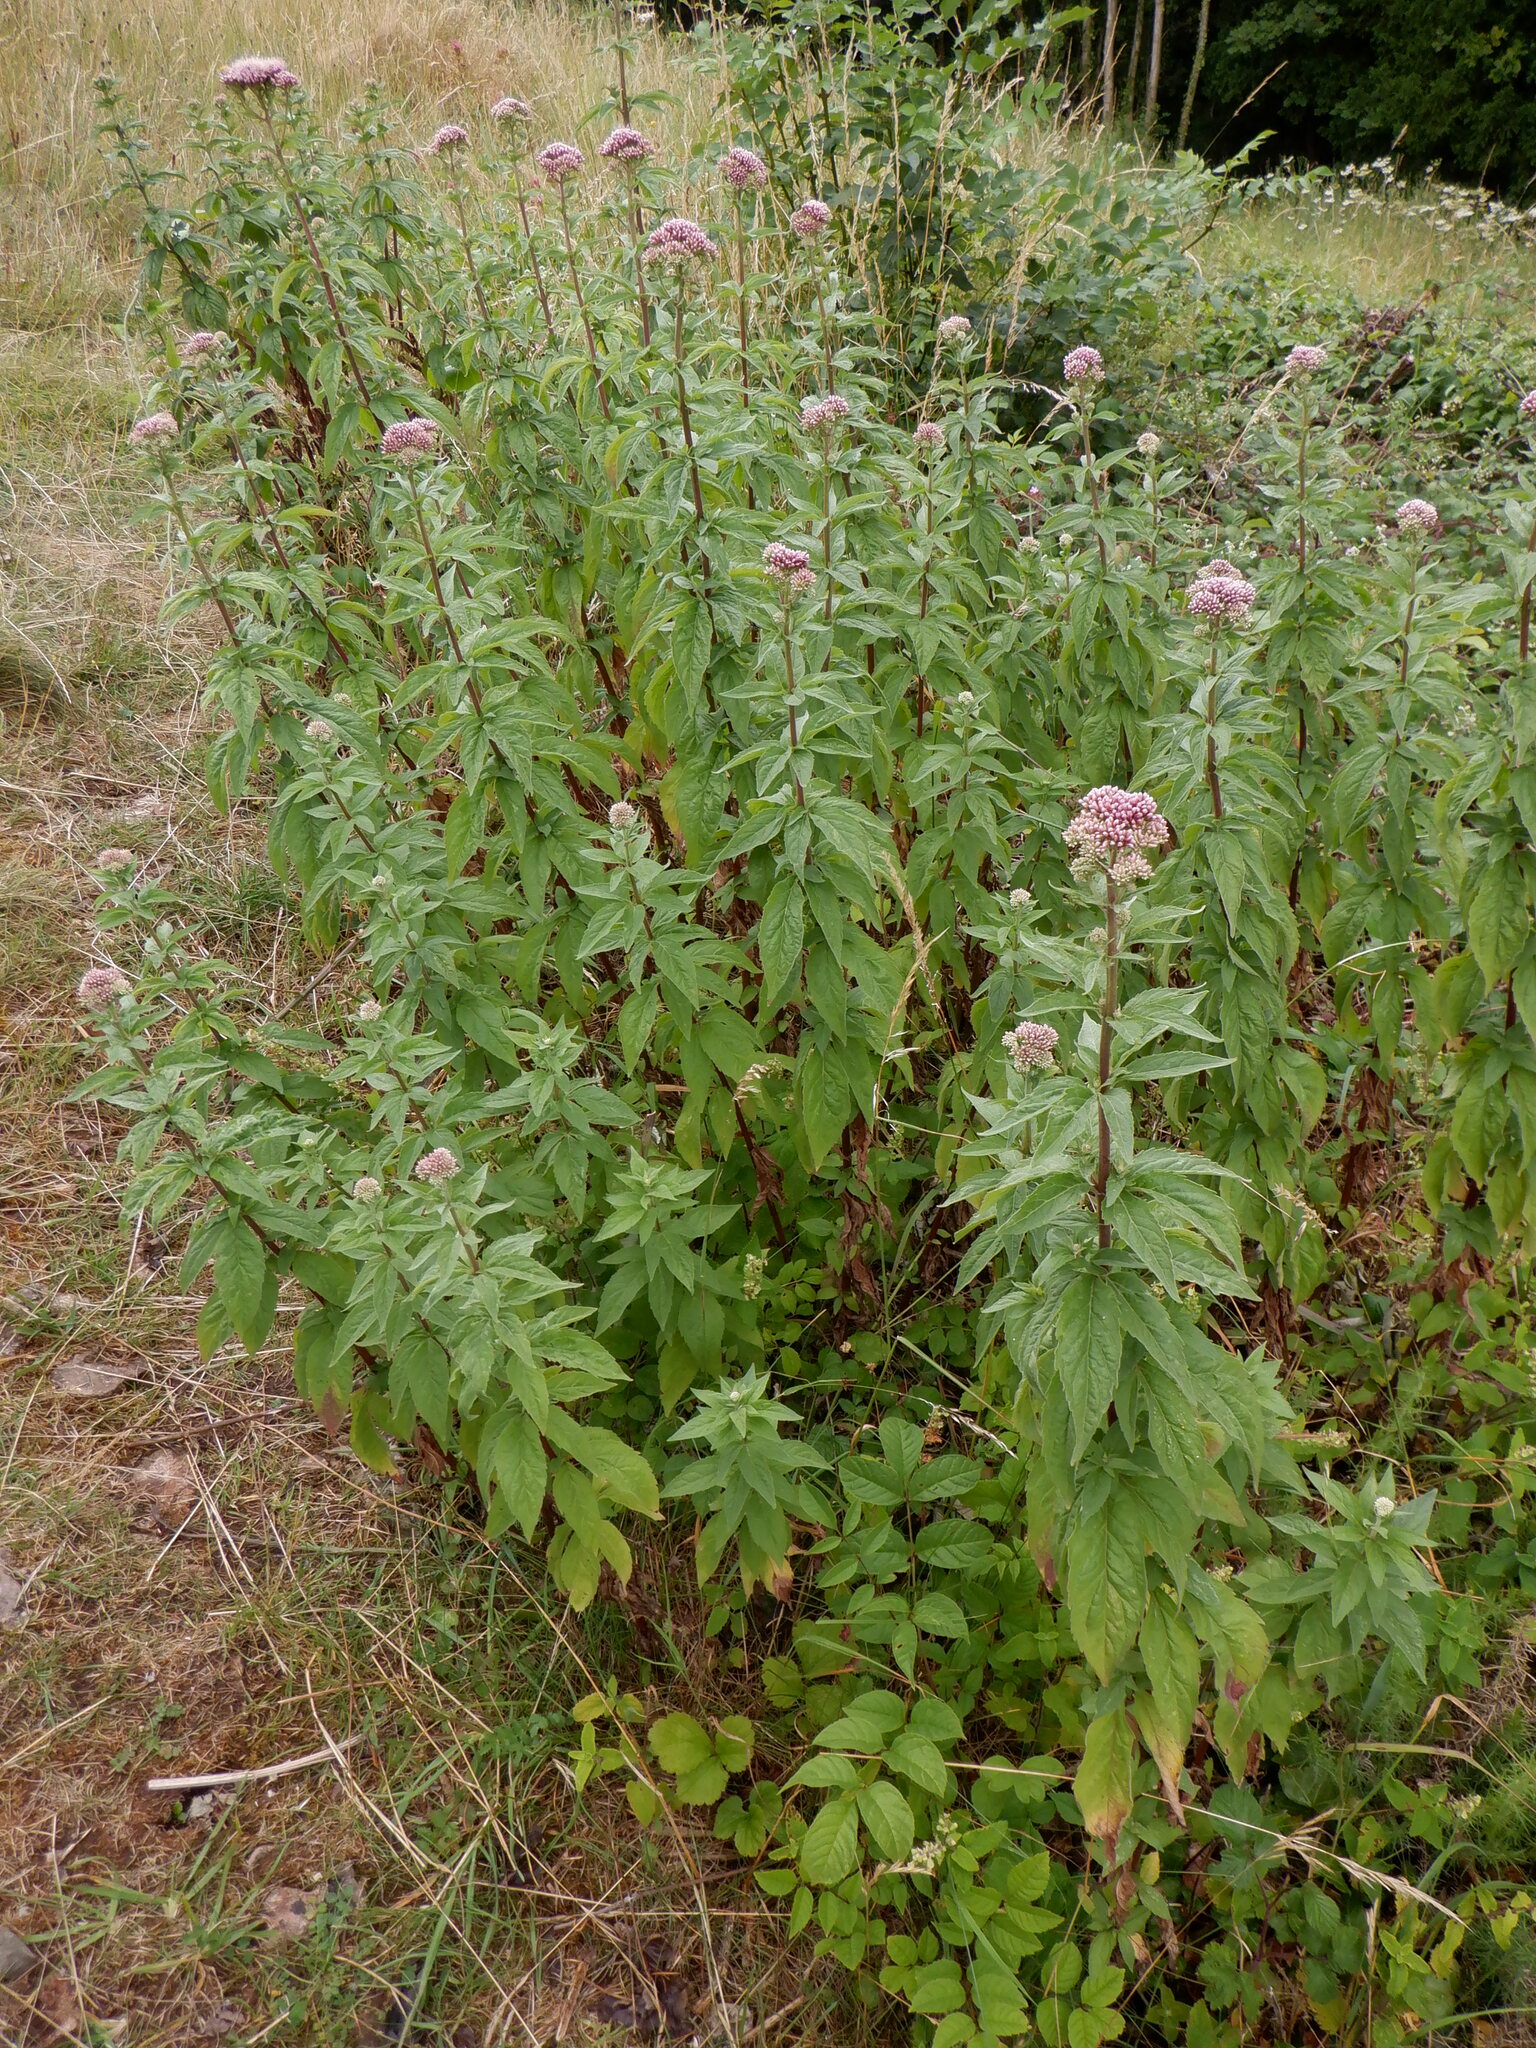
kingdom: Plantae
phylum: Tracheophyta
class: Magnoliopsida
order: Asterales
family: Asteraceae
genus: Eupatorium
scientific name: Eupatorium cannabinum
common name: Hemp-agrimony
